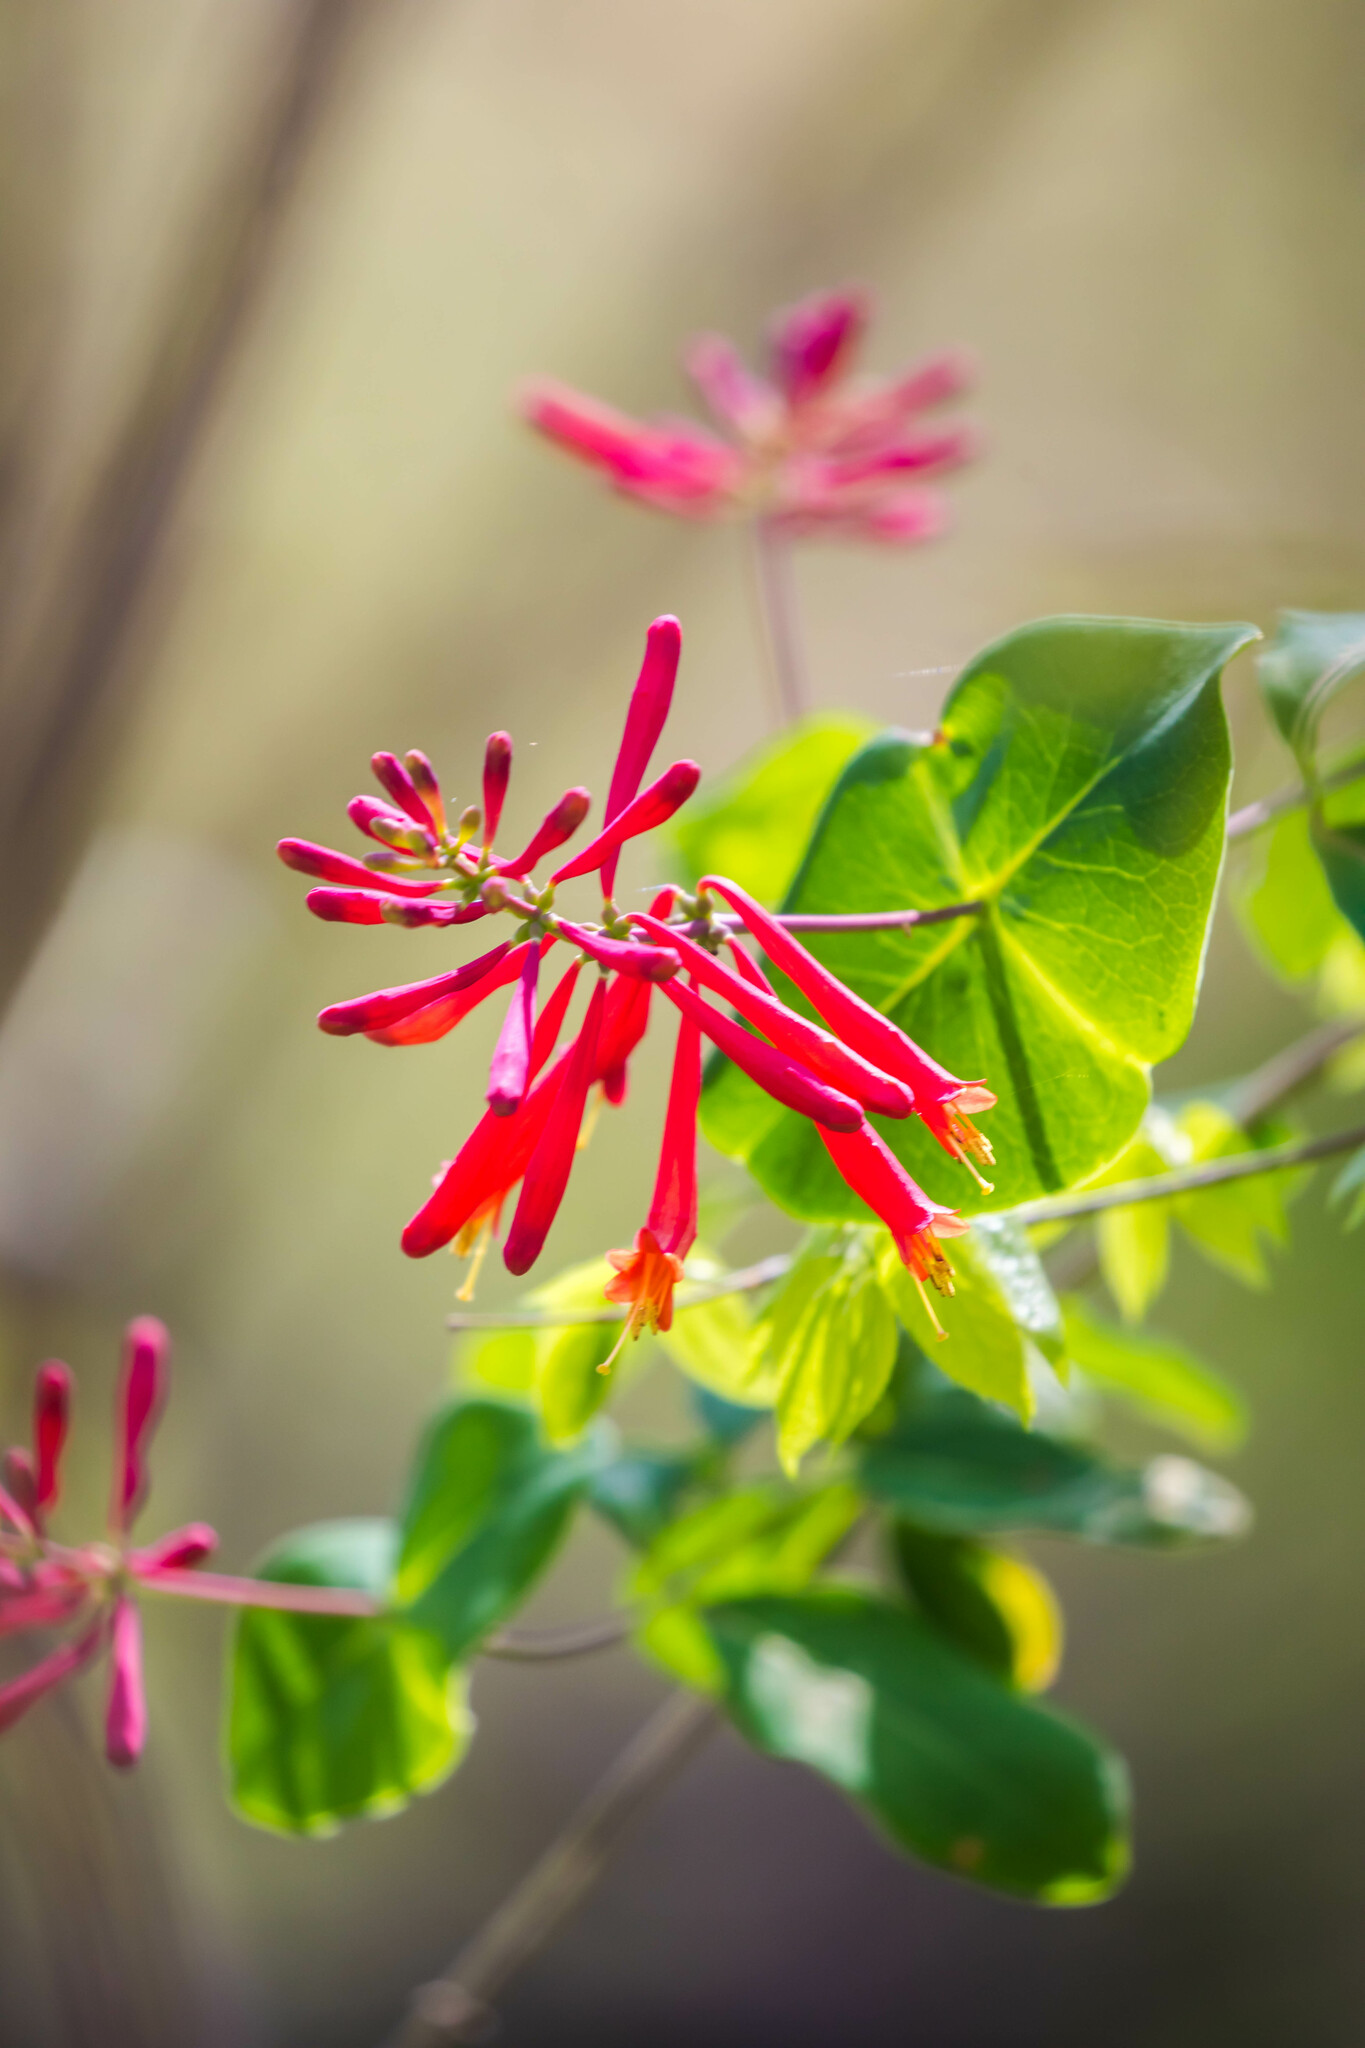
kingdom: Plantae
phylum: Tracheophyta
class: Magnoliopsida
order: Dipsacales
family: Caprifoliaceae
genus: Lonicera
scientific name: Lonicera sempervirens
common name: Coral honeysuckle
